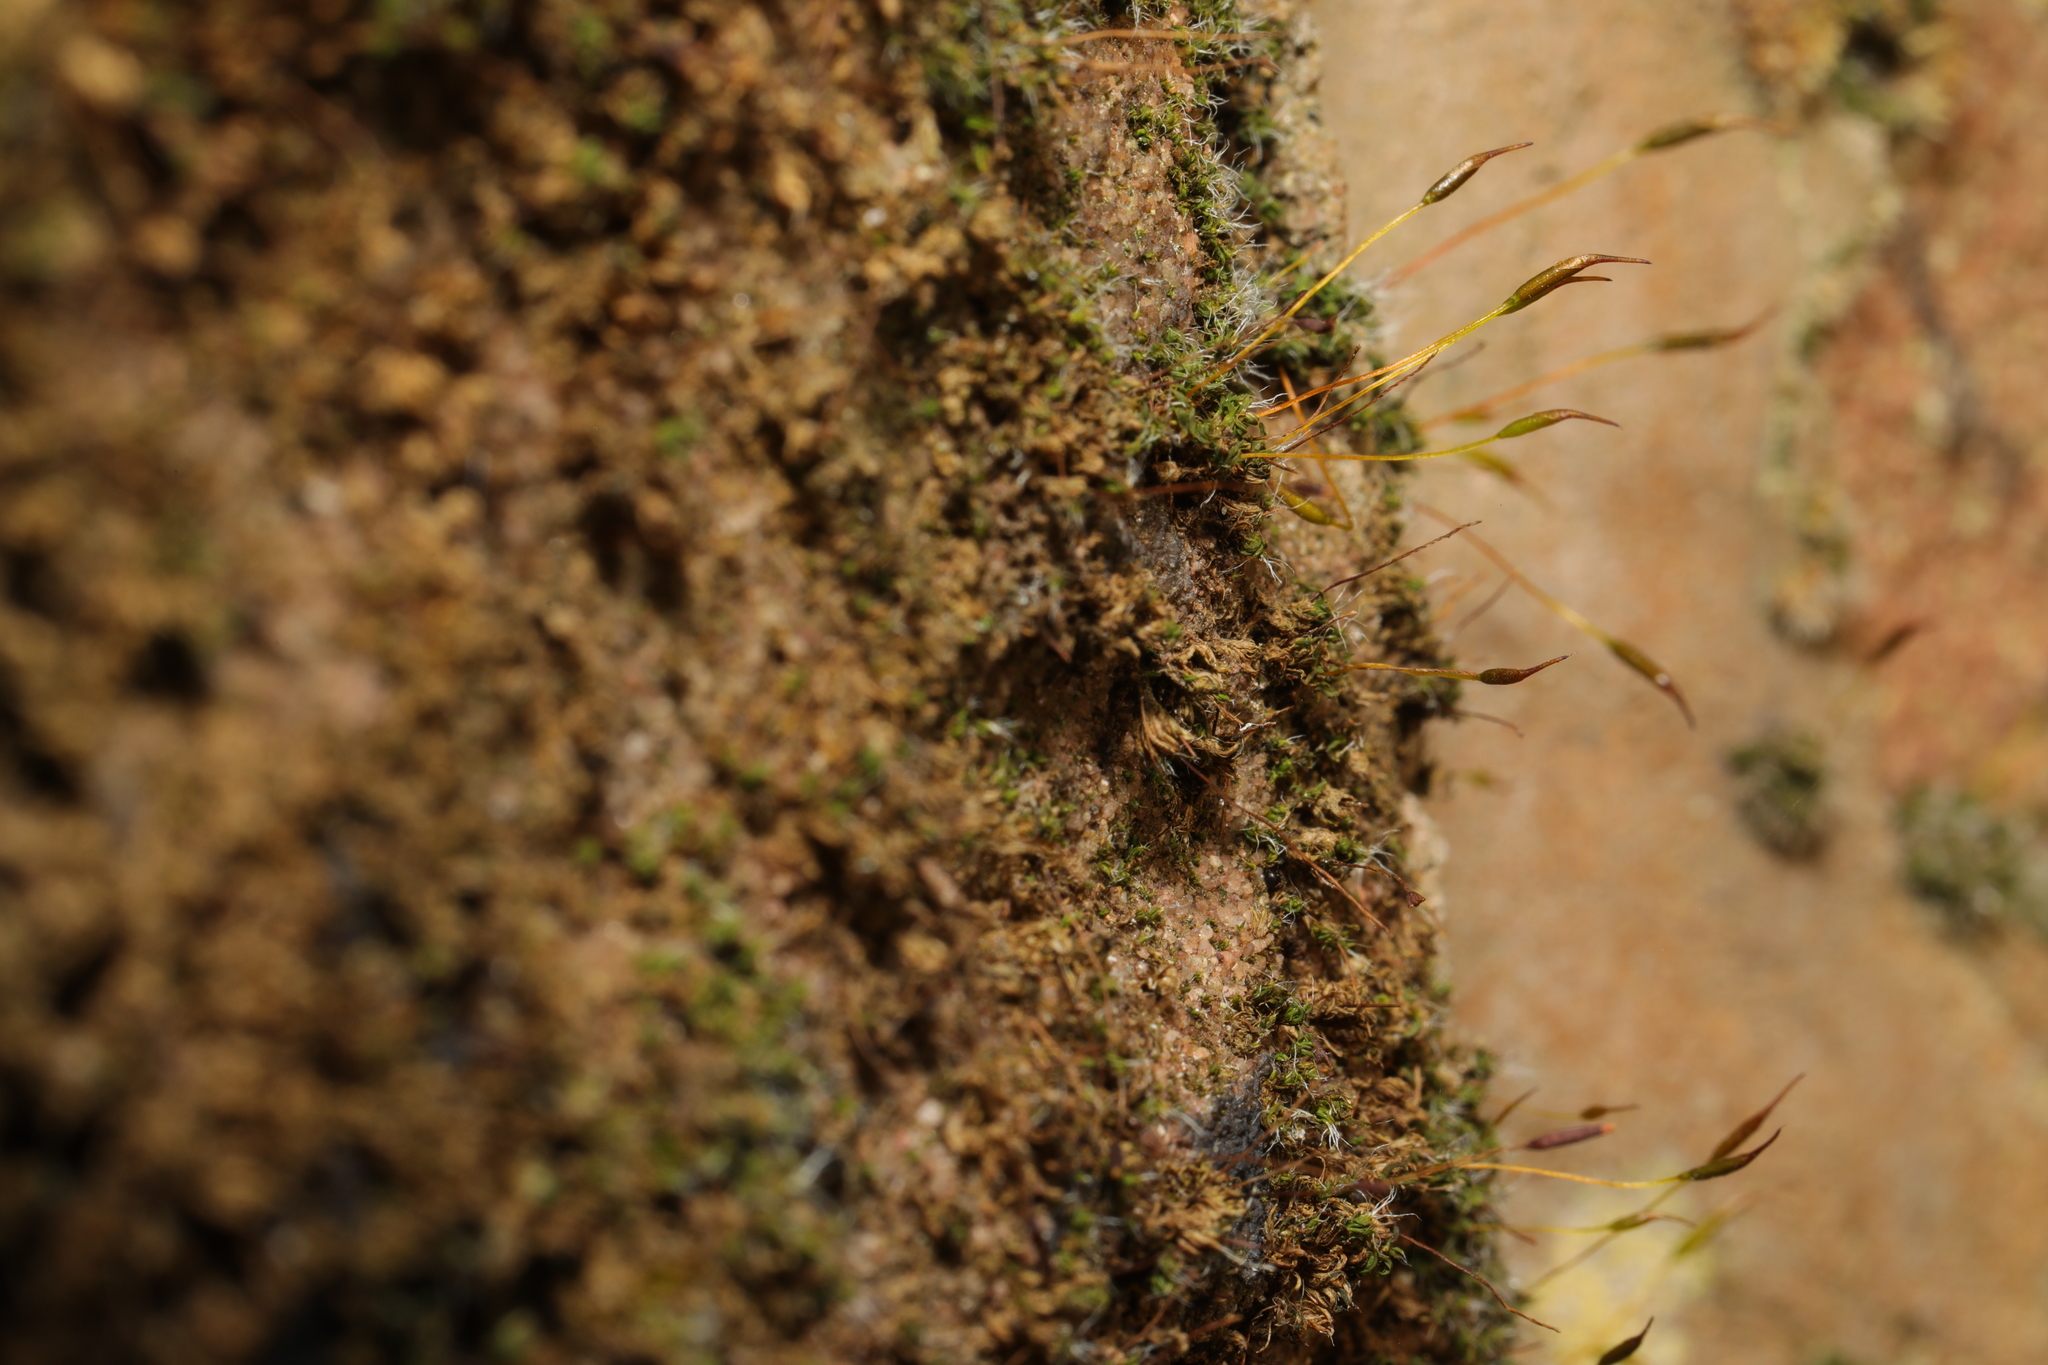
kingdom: Plantae
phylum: Bryophyta
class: Bryopsida
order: Pottiales
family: Pottiaceae
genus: Tortula
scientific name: Tortula muralis
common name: Wall screw-moss
